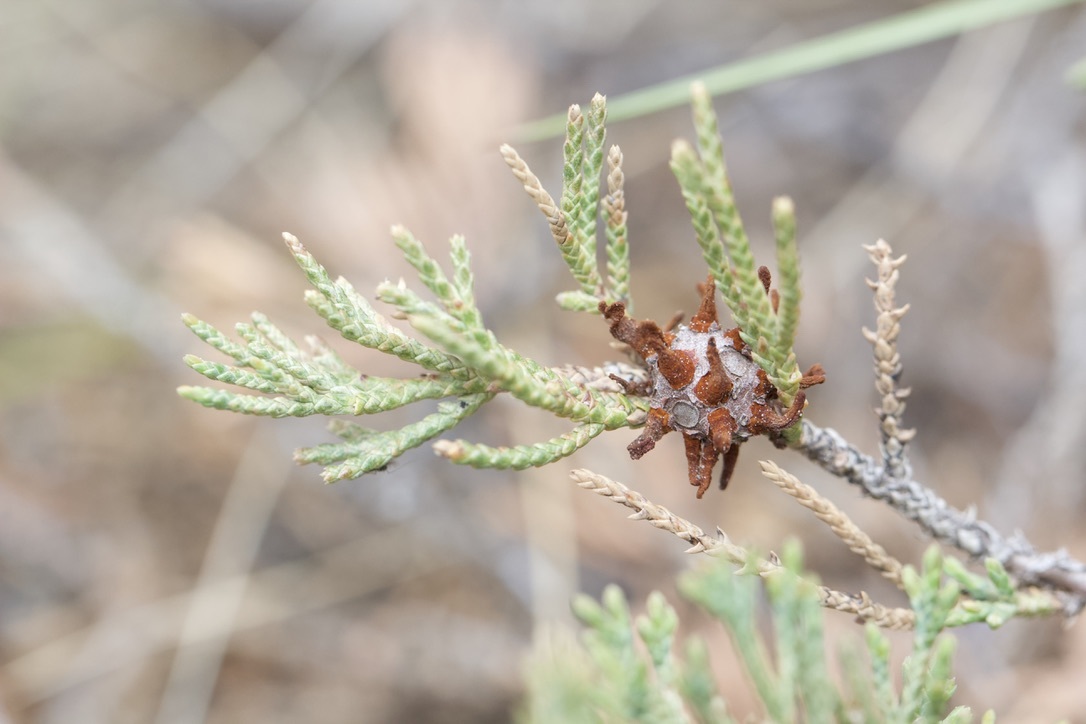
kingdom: Fungi
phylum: Basidiomycota
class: Pucciniomycetes
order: Pucciniales
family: Gymnosporangiaceae
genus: Gymnosporangium
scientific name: Gymnosporangium juniperi-virginianae
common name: Juniper-apple rust
